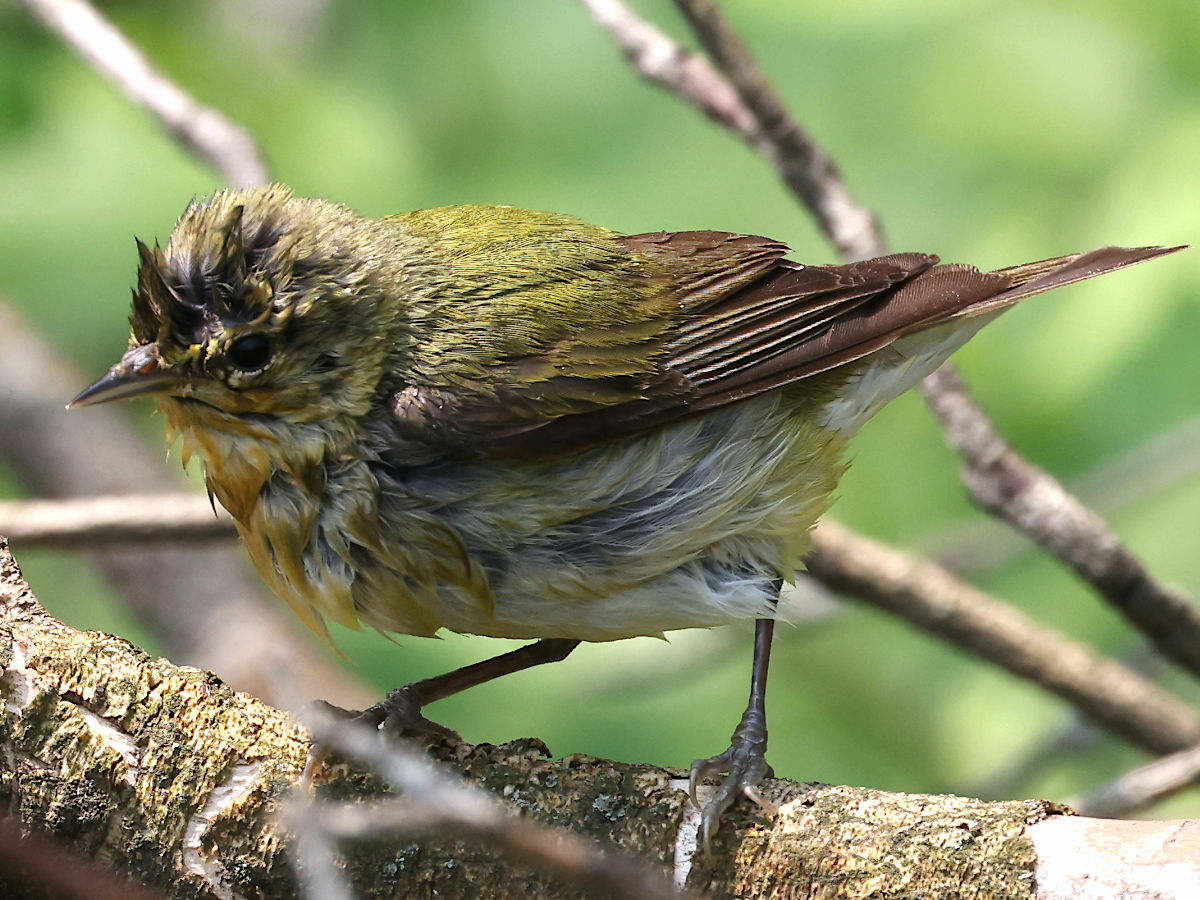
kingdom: Animalia
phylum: Chordata
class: Aves
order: Passeriformes
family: Parulidae
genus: Leiothlypis
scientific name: Leiothlypis peregrina
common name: Tennessee warbler
